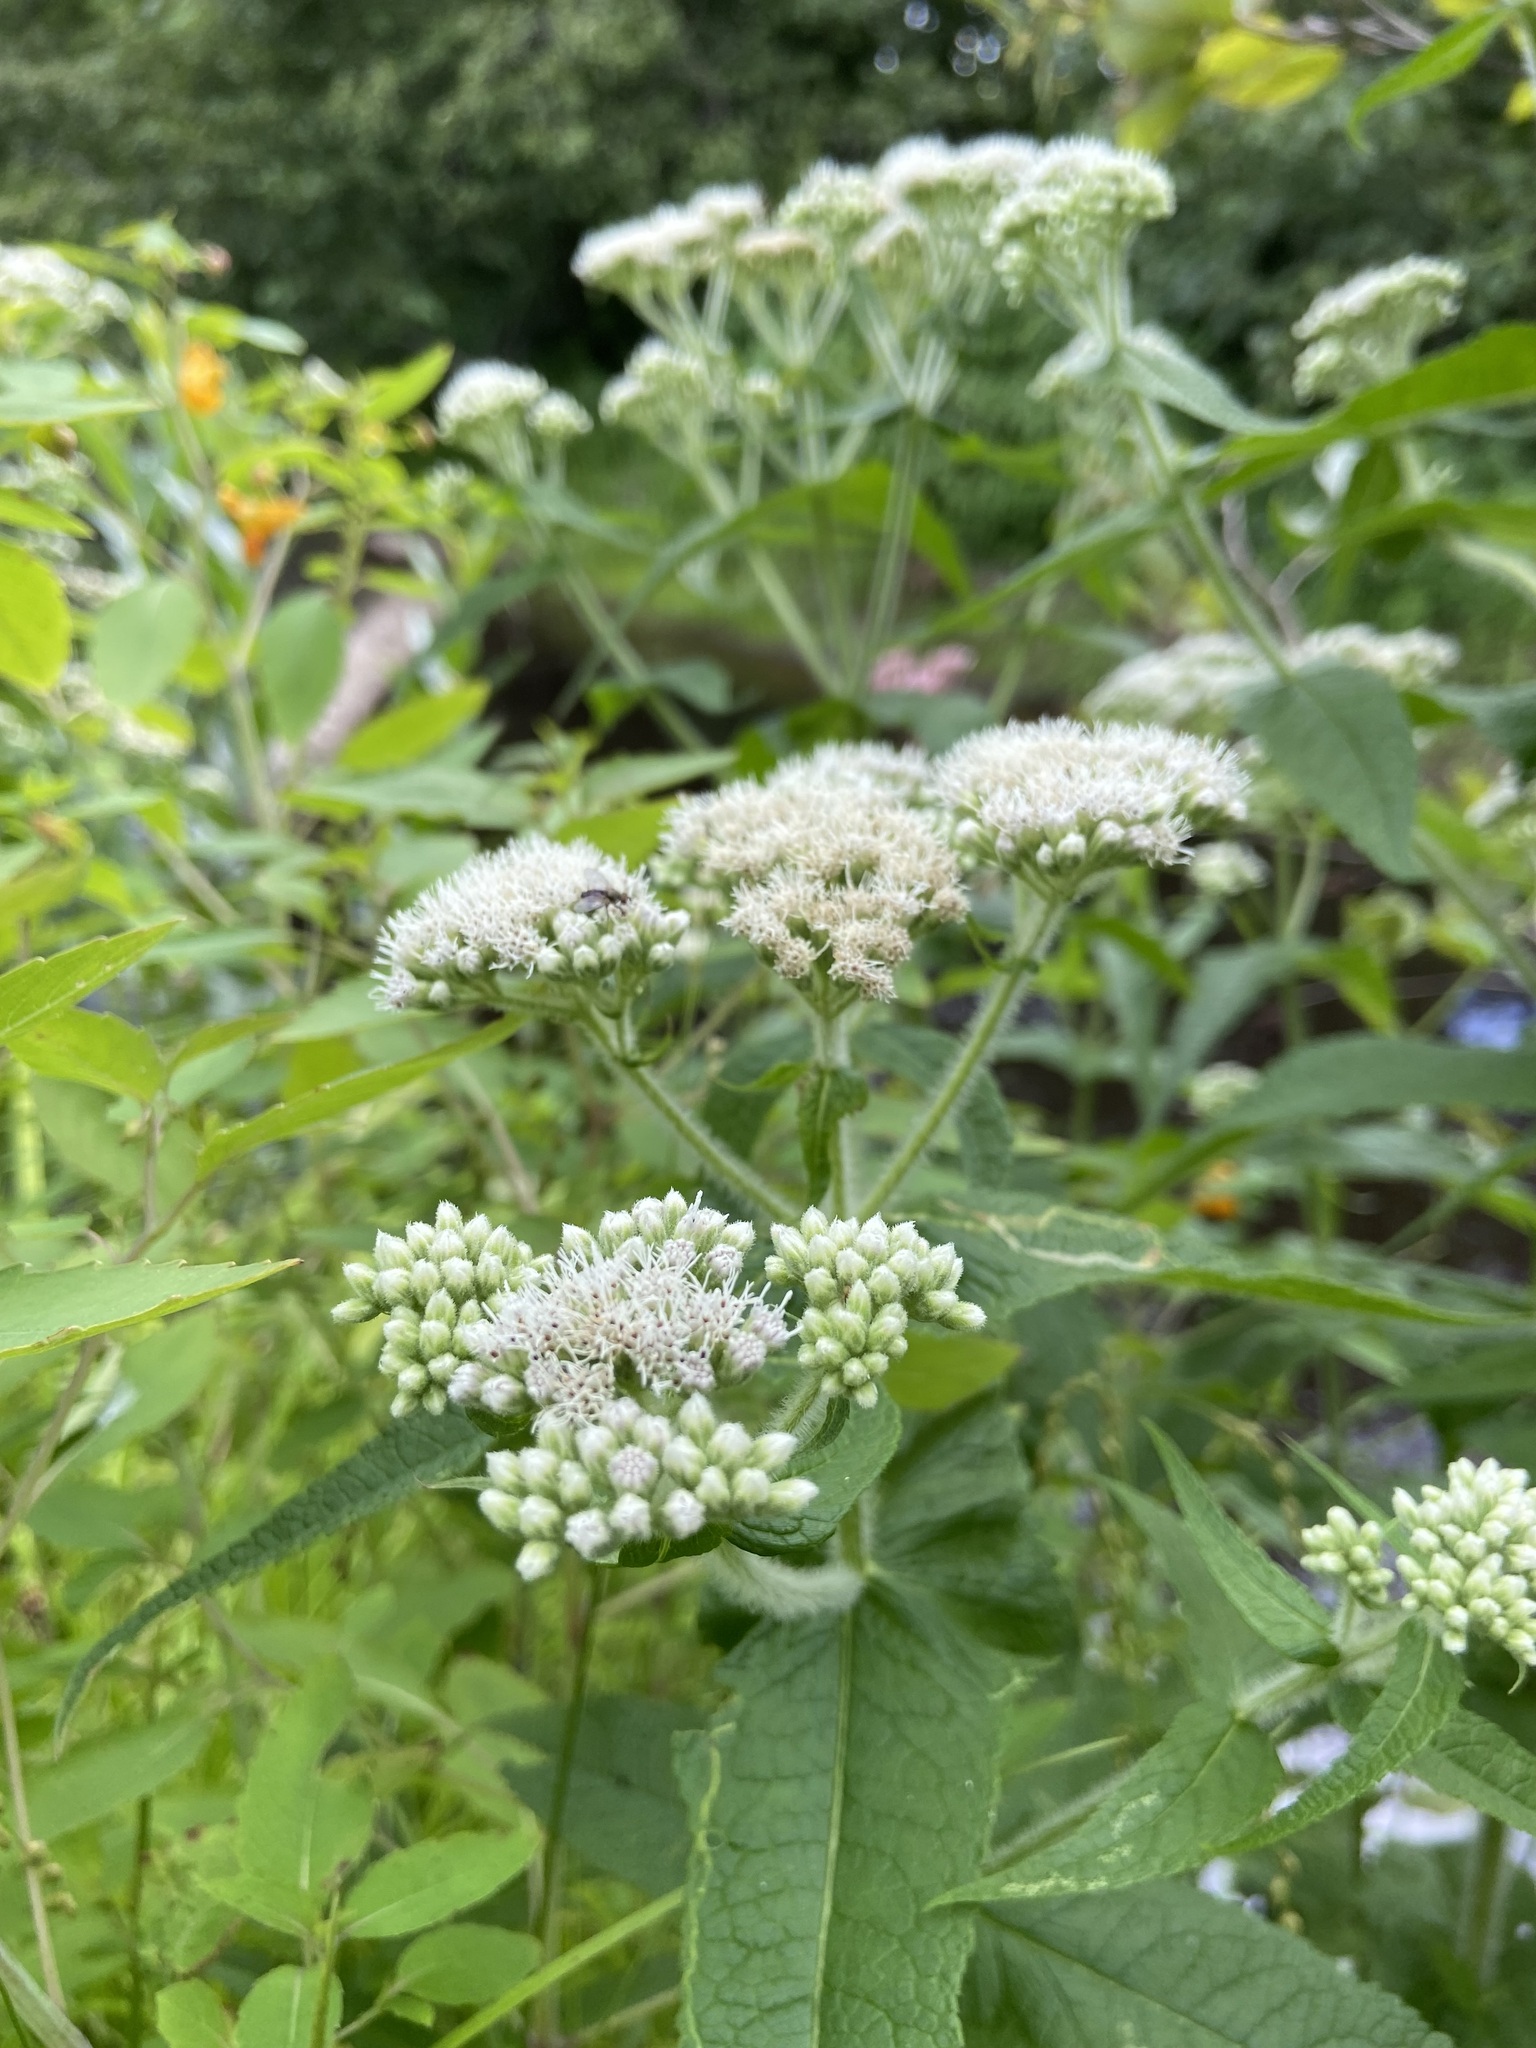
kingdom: Plantae
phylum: Tracheophyta
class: Magnoliopsida
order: Asterales
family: Asteraceae
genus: Eupatorium
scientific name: Eupatorium perfoliatum
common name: Boneset
